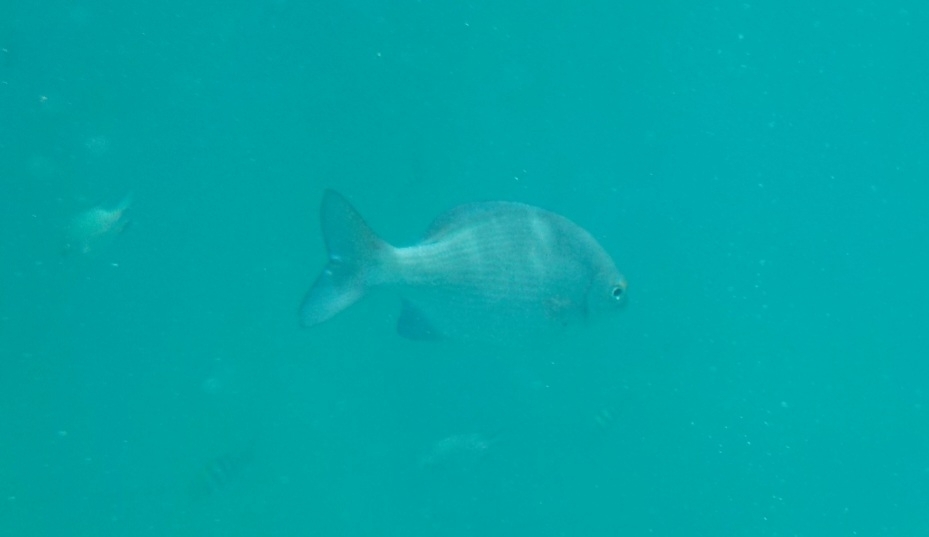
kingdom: Animalia
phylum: Chordata
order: Perciformes
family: Kyphosidae
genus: Kyphosus
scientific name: Kyphosus vaigiensis
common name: Brassy chub
